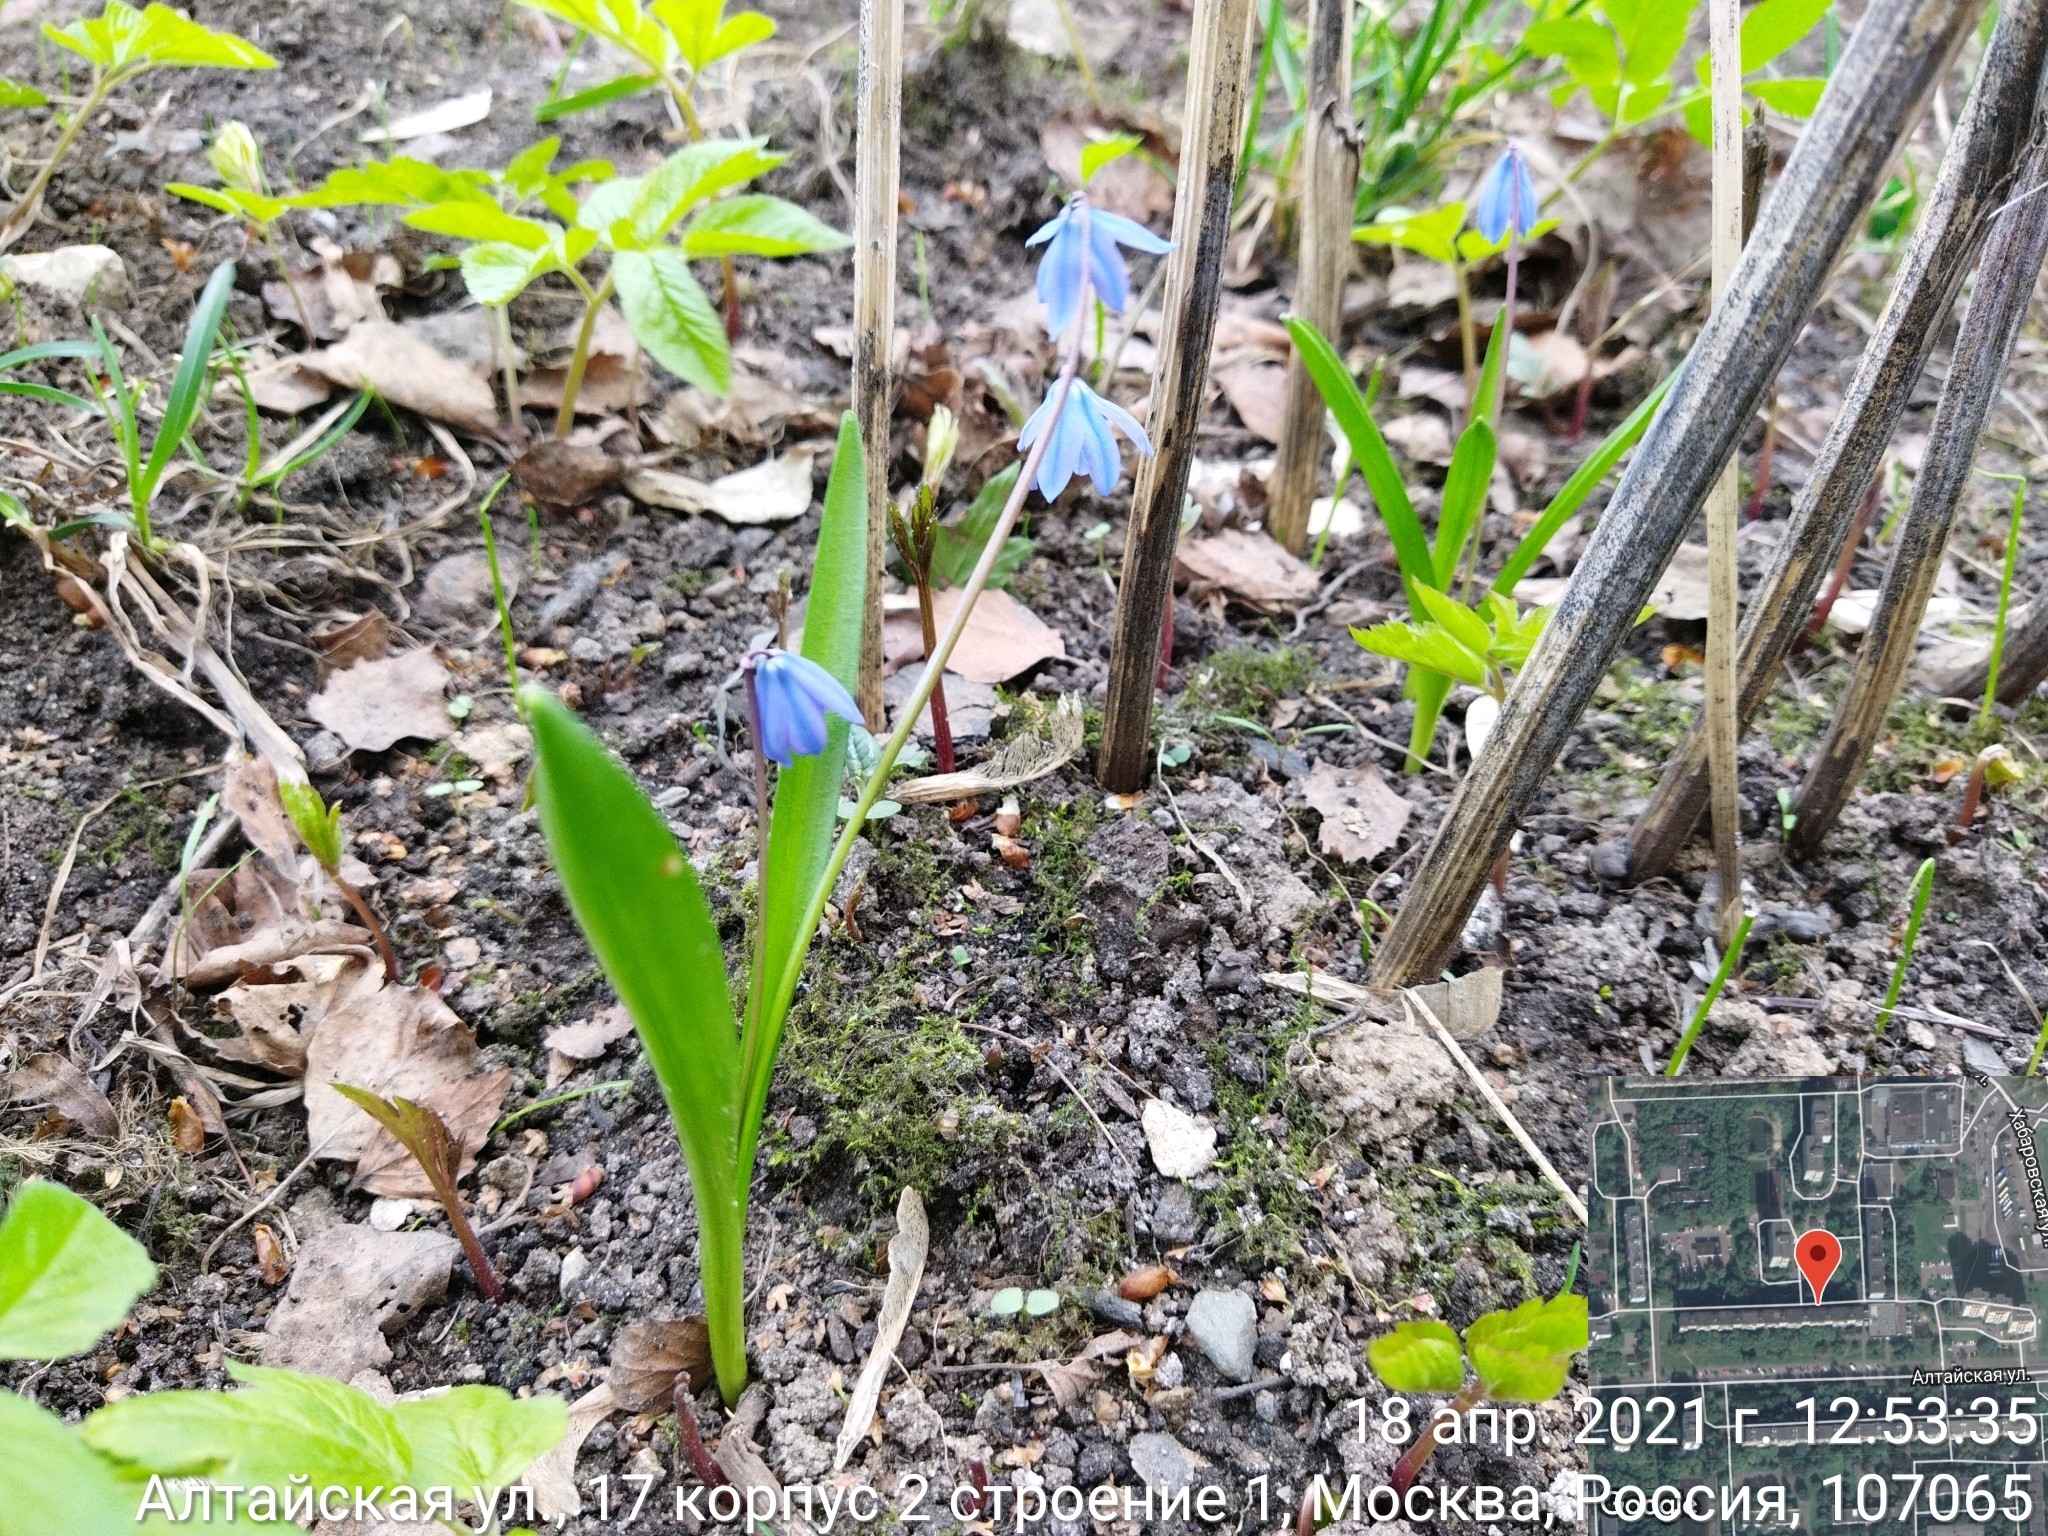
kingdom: Plantae
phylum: Tracheophyta
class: Liliopsida
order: Asparagales
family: Asparagaceae
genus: Scilla
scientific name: Scilla siberica
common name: Siberian squill
